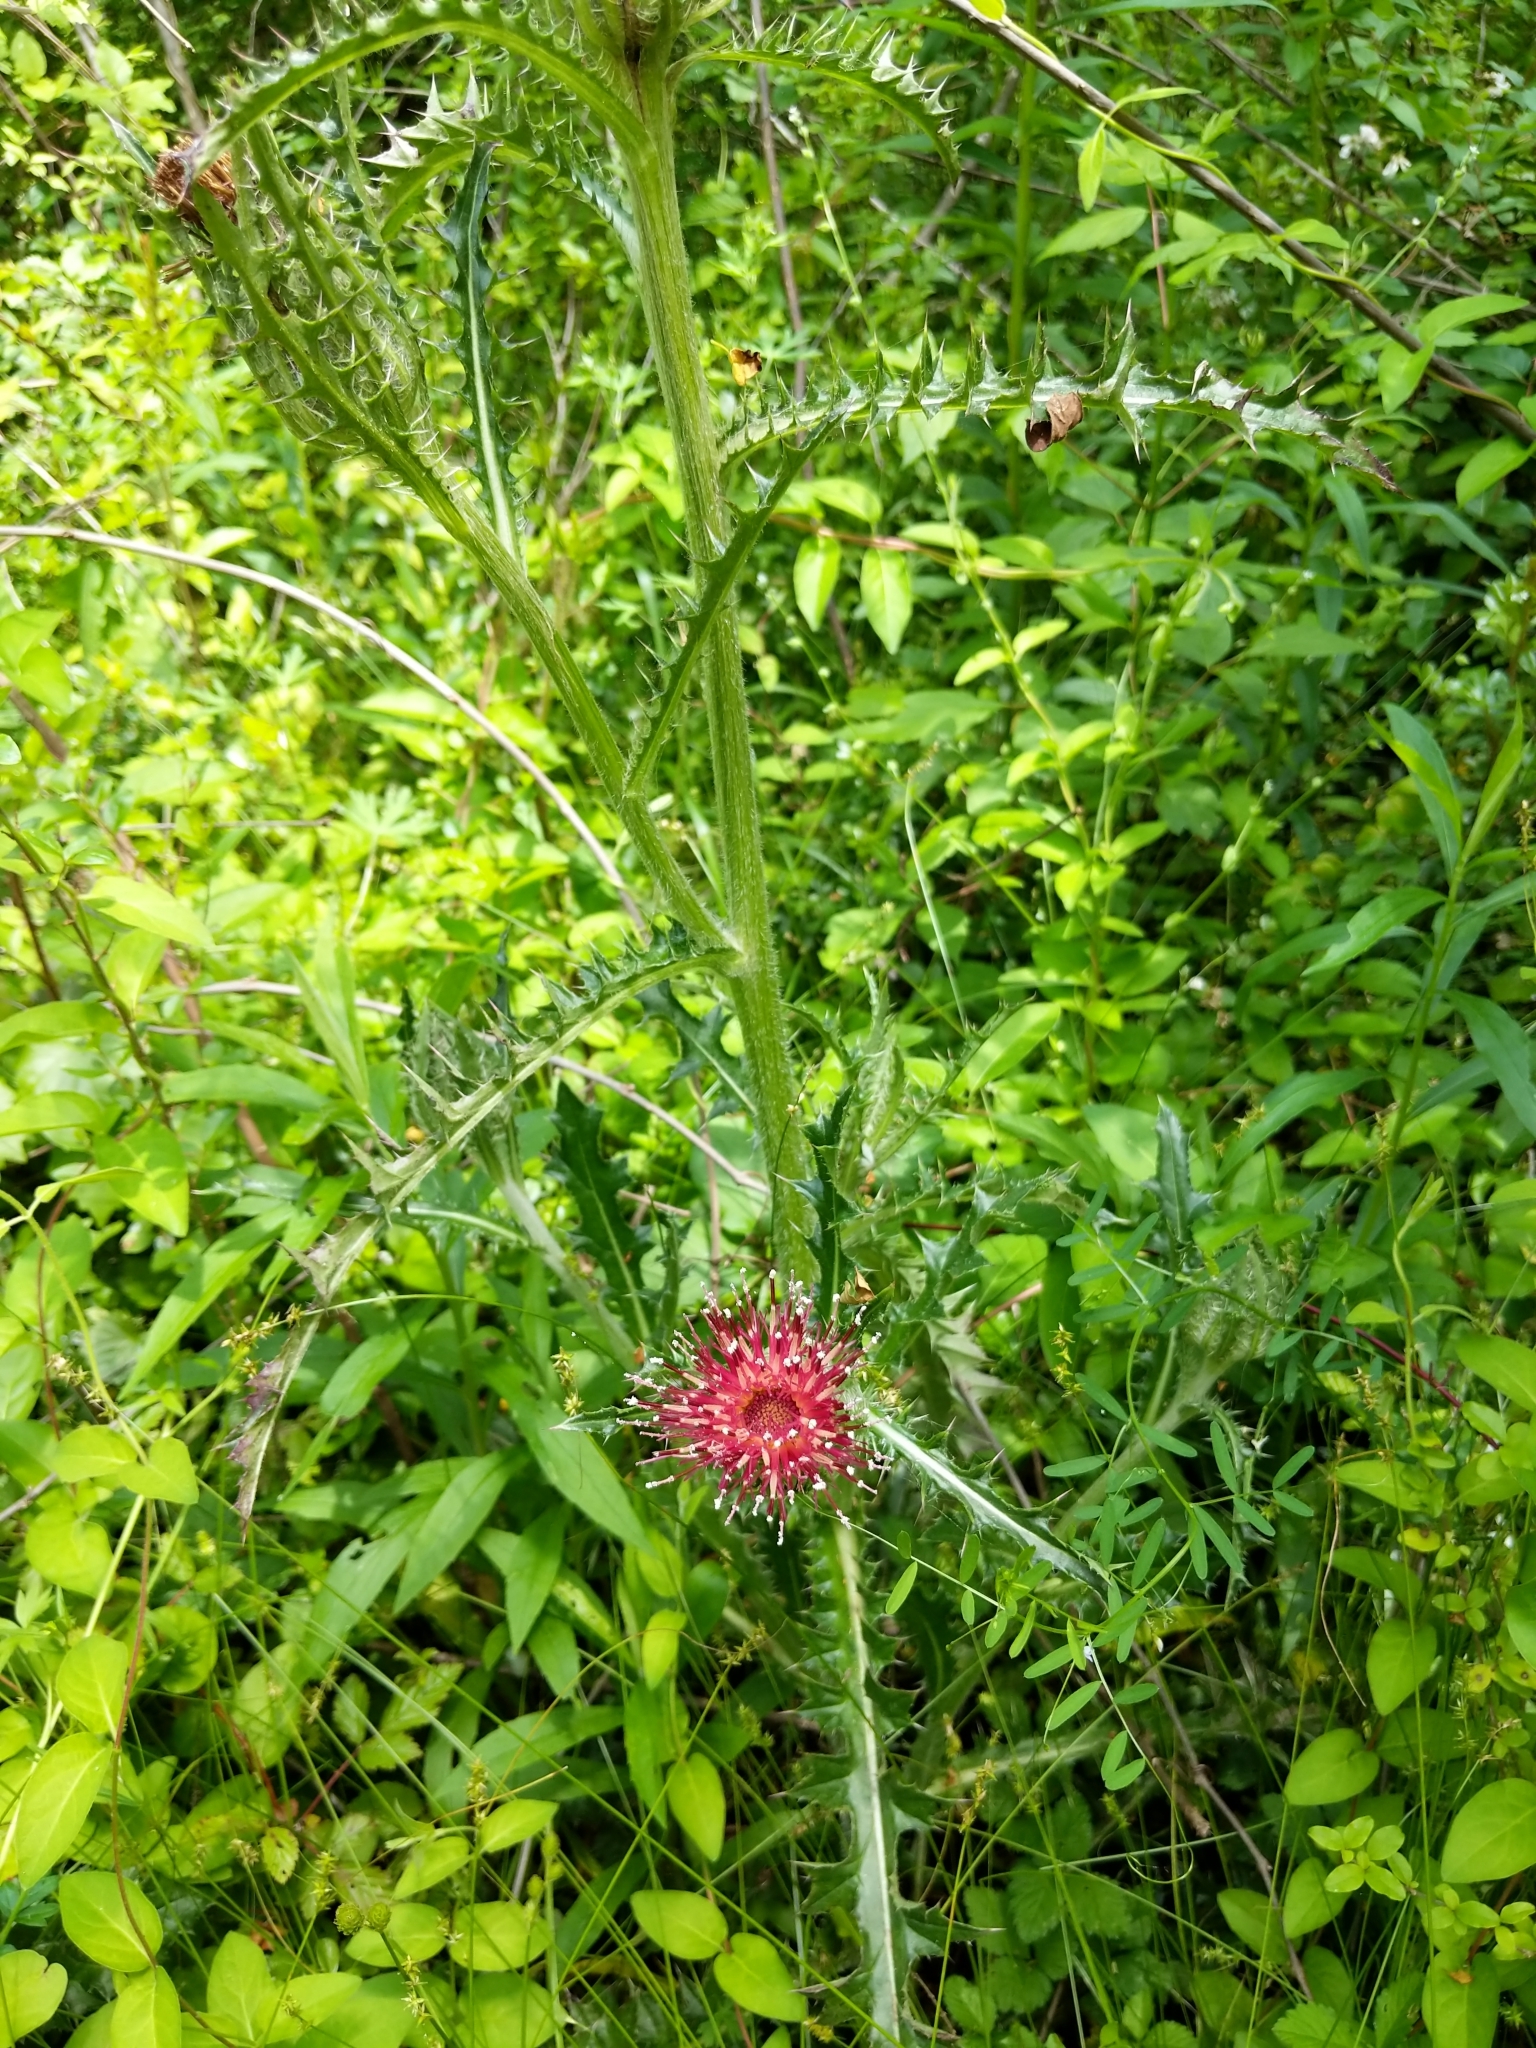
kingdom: Plantae
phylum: Tracheophyta
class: Magnoliopsida
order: Asterales
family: Asteraceae
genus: Cirsium
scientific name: Cirsium horridulum
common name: Bristly thistle
